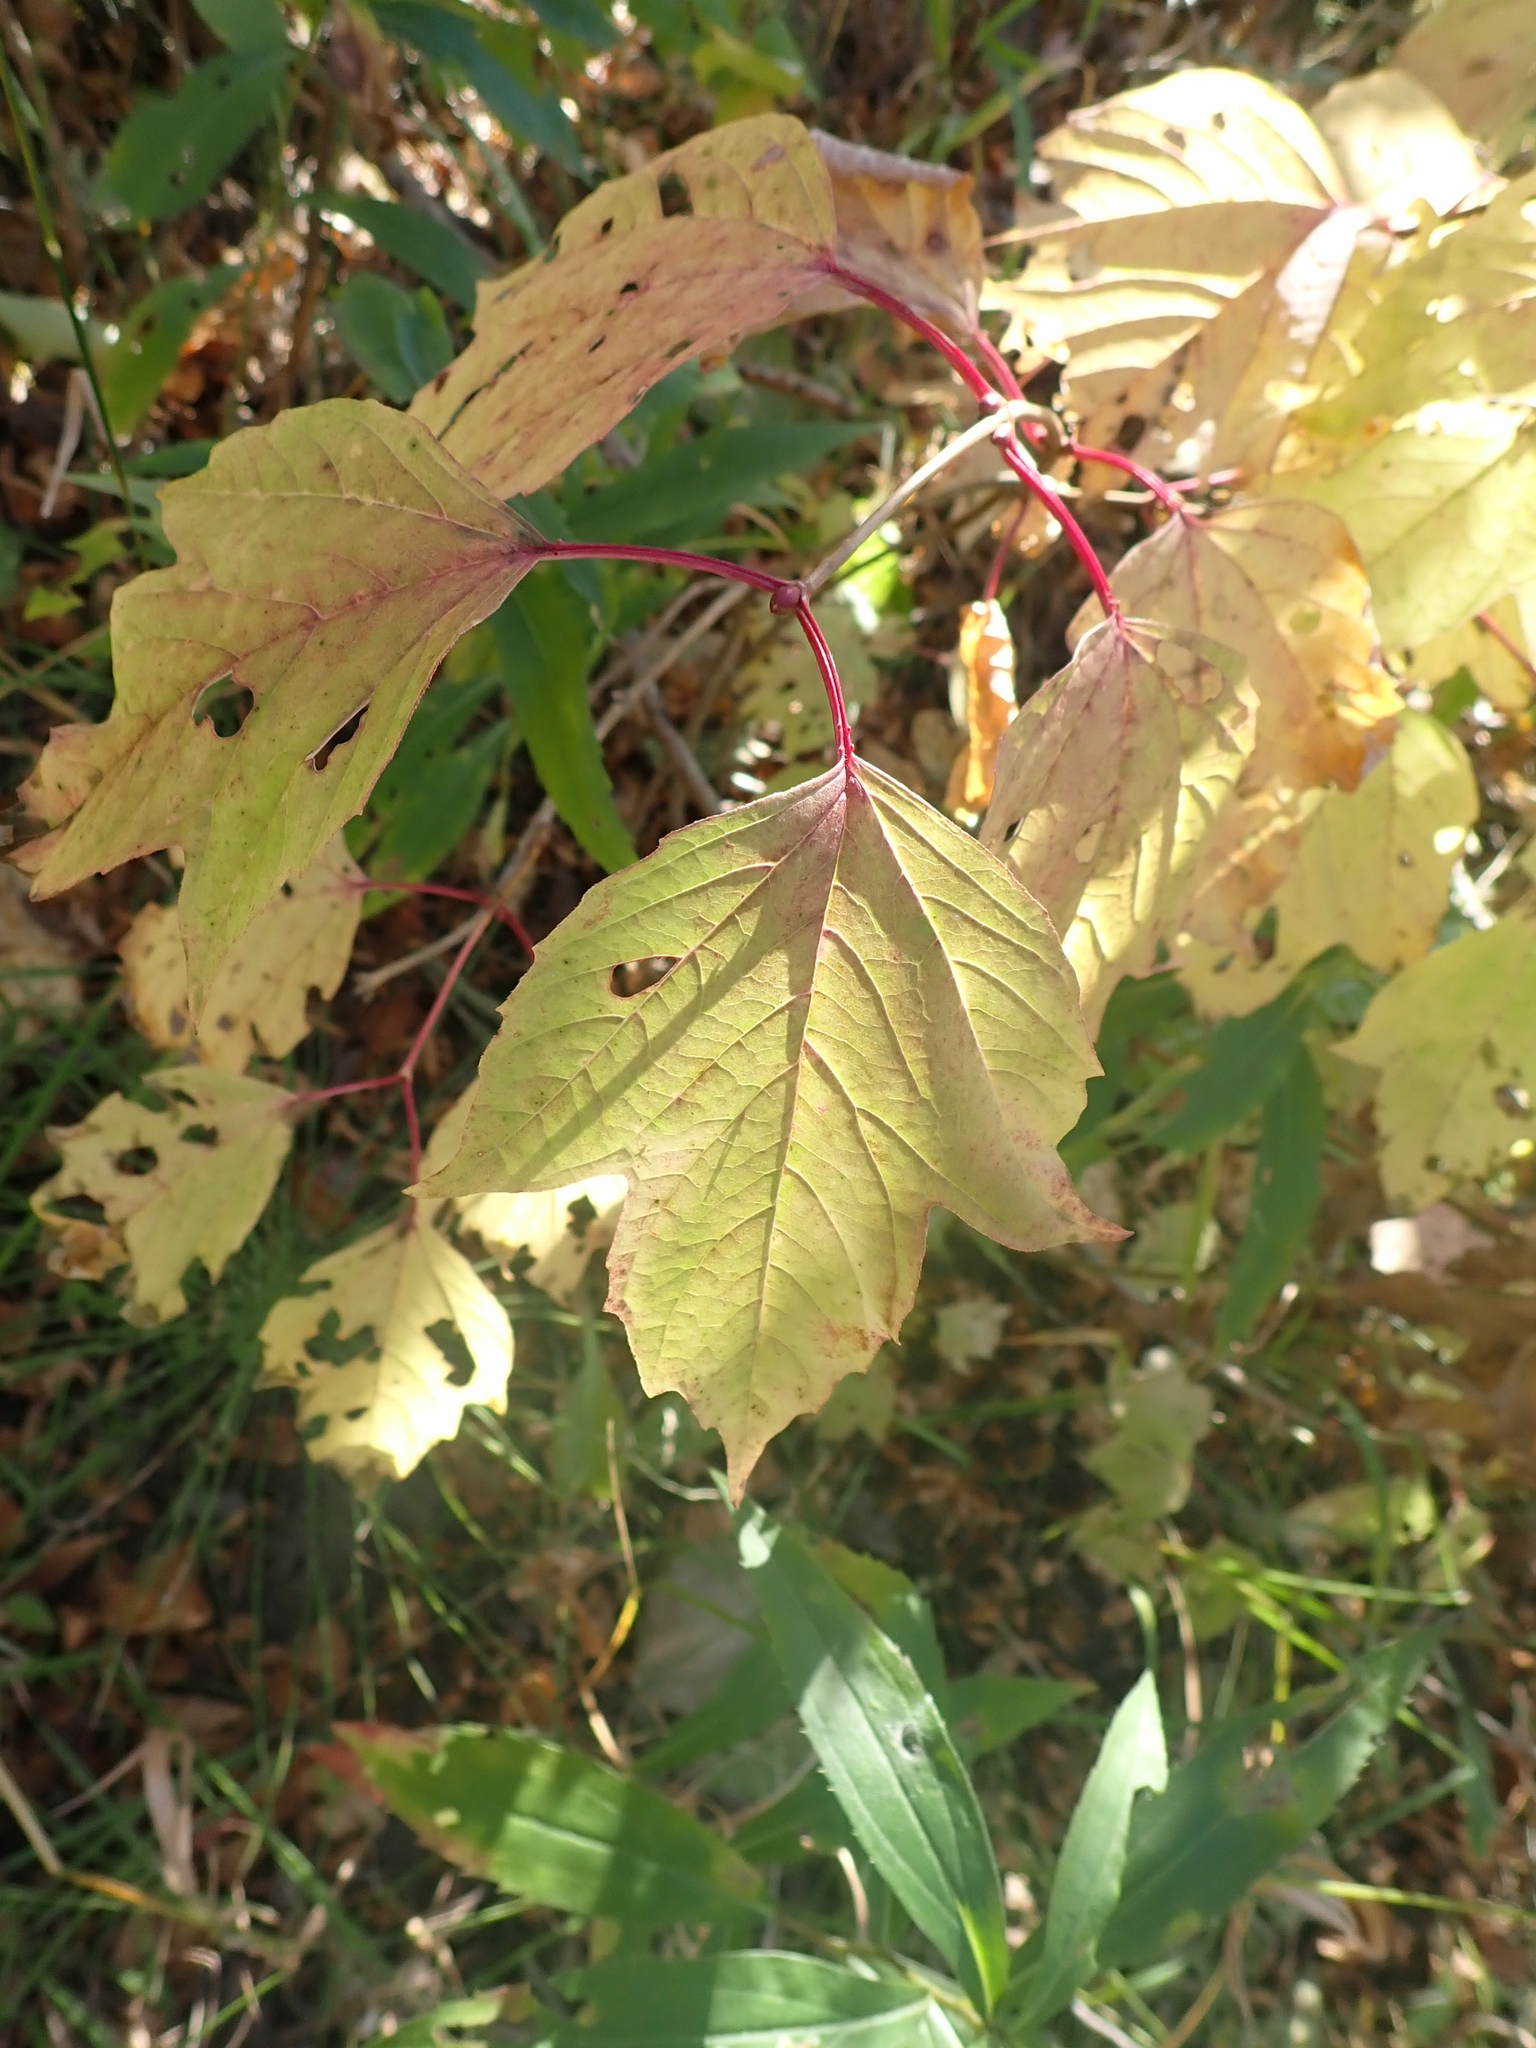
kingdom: Plantae
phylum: Tracheophyta
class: Magnoliopsida
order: Dipsacales
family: Viburnaceae
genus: Viburnum
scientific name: Viburnum trilobum
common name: American cranberrybush
